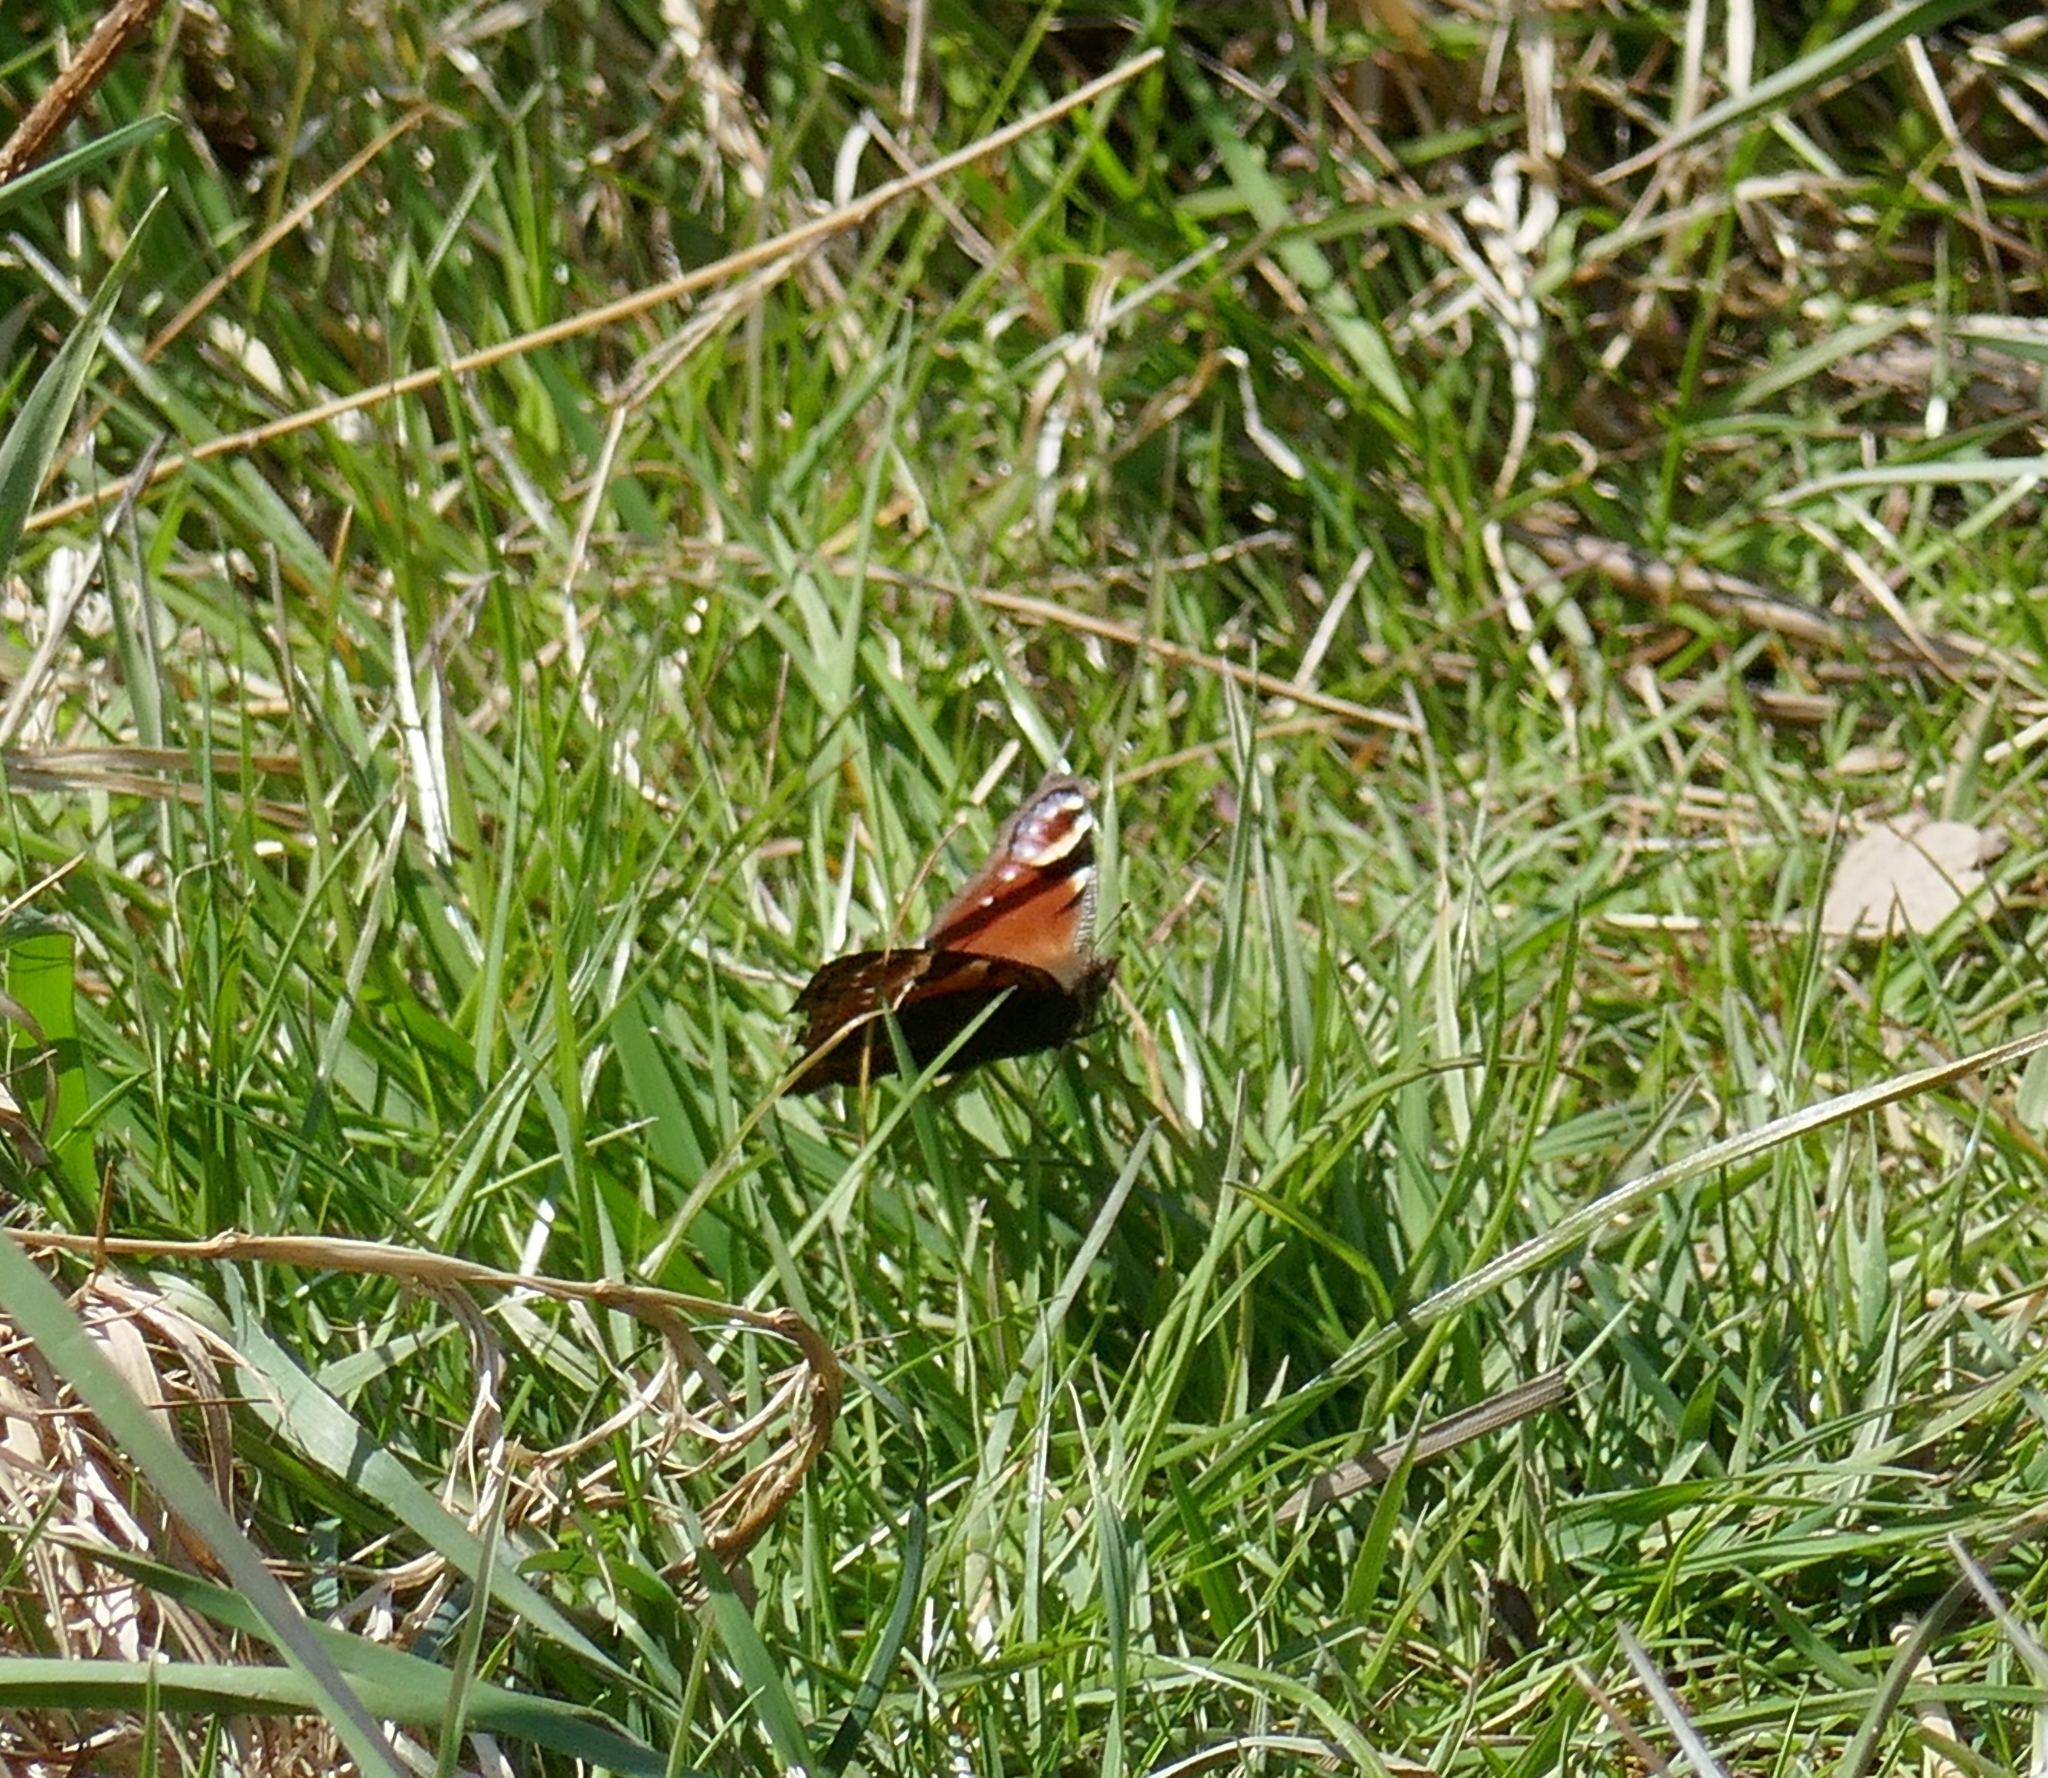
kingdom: Animalia
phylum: Arthropoda
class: Insecta
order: Lepidoptera
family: Nymphalidae
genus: Aglais
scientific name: Aglais io
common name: Peacock
